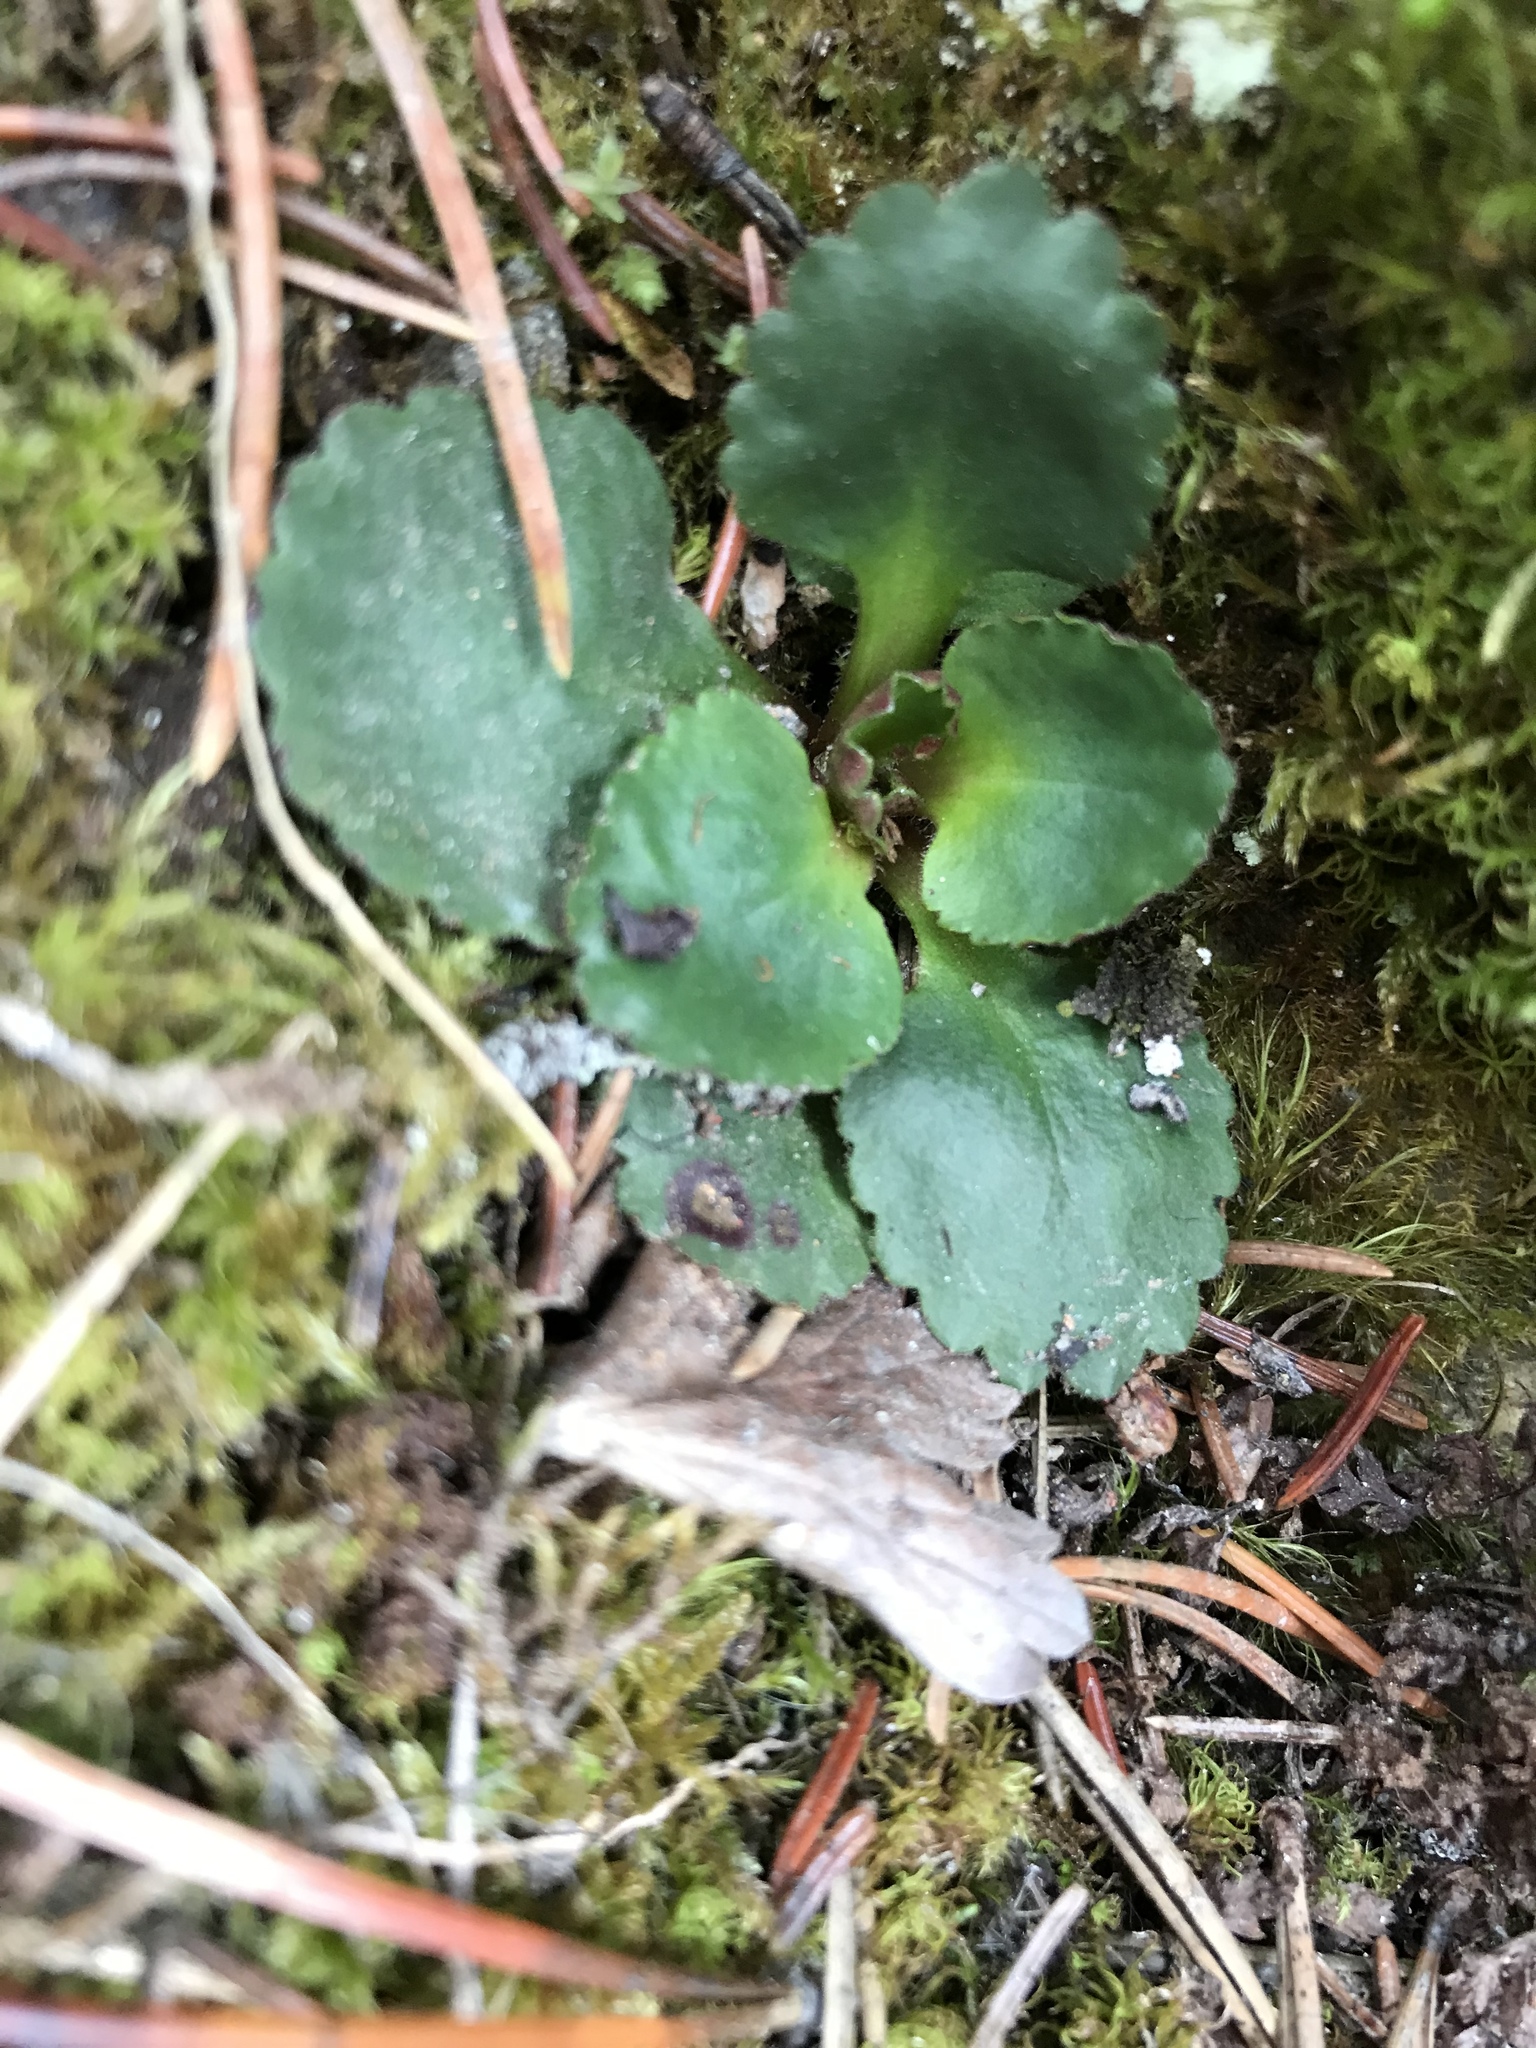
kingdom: Plantae
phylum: Tracheophyta
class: Magnoliopsida
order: Saxifragales
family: Saxifragaceae
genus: Micranthes
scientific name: Micranthes occidentalis
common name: Alberta saxifrage
